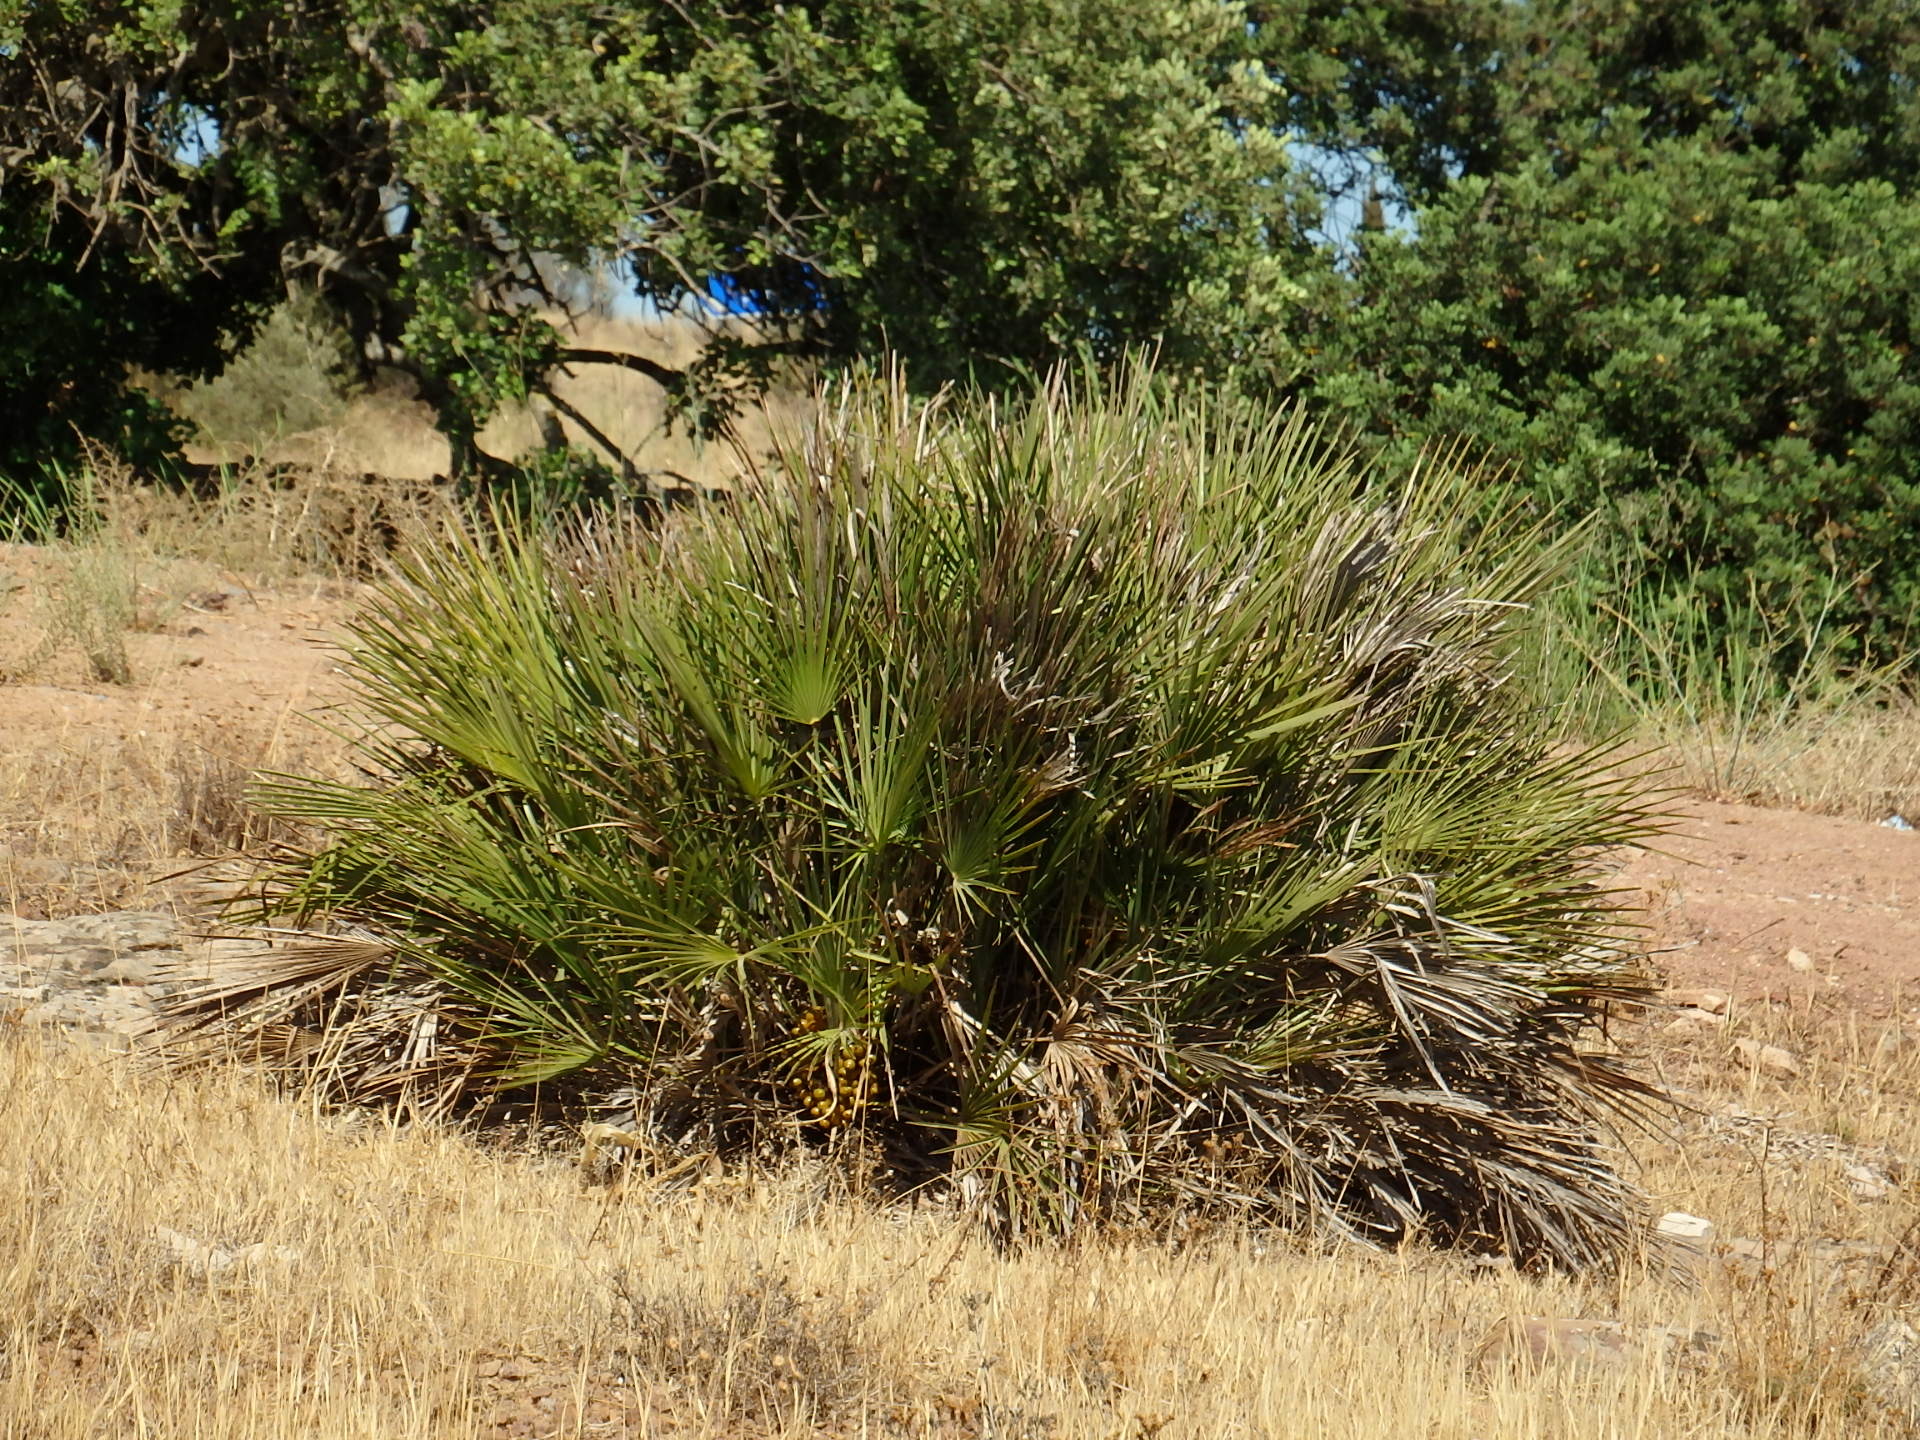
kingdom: Plantae
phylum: Tracheophyta
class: Liliopsida
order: Arecales
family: Arecaceae
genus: Chamaerops
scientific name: Chamaerops humilis
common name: Dwarf fan palm
